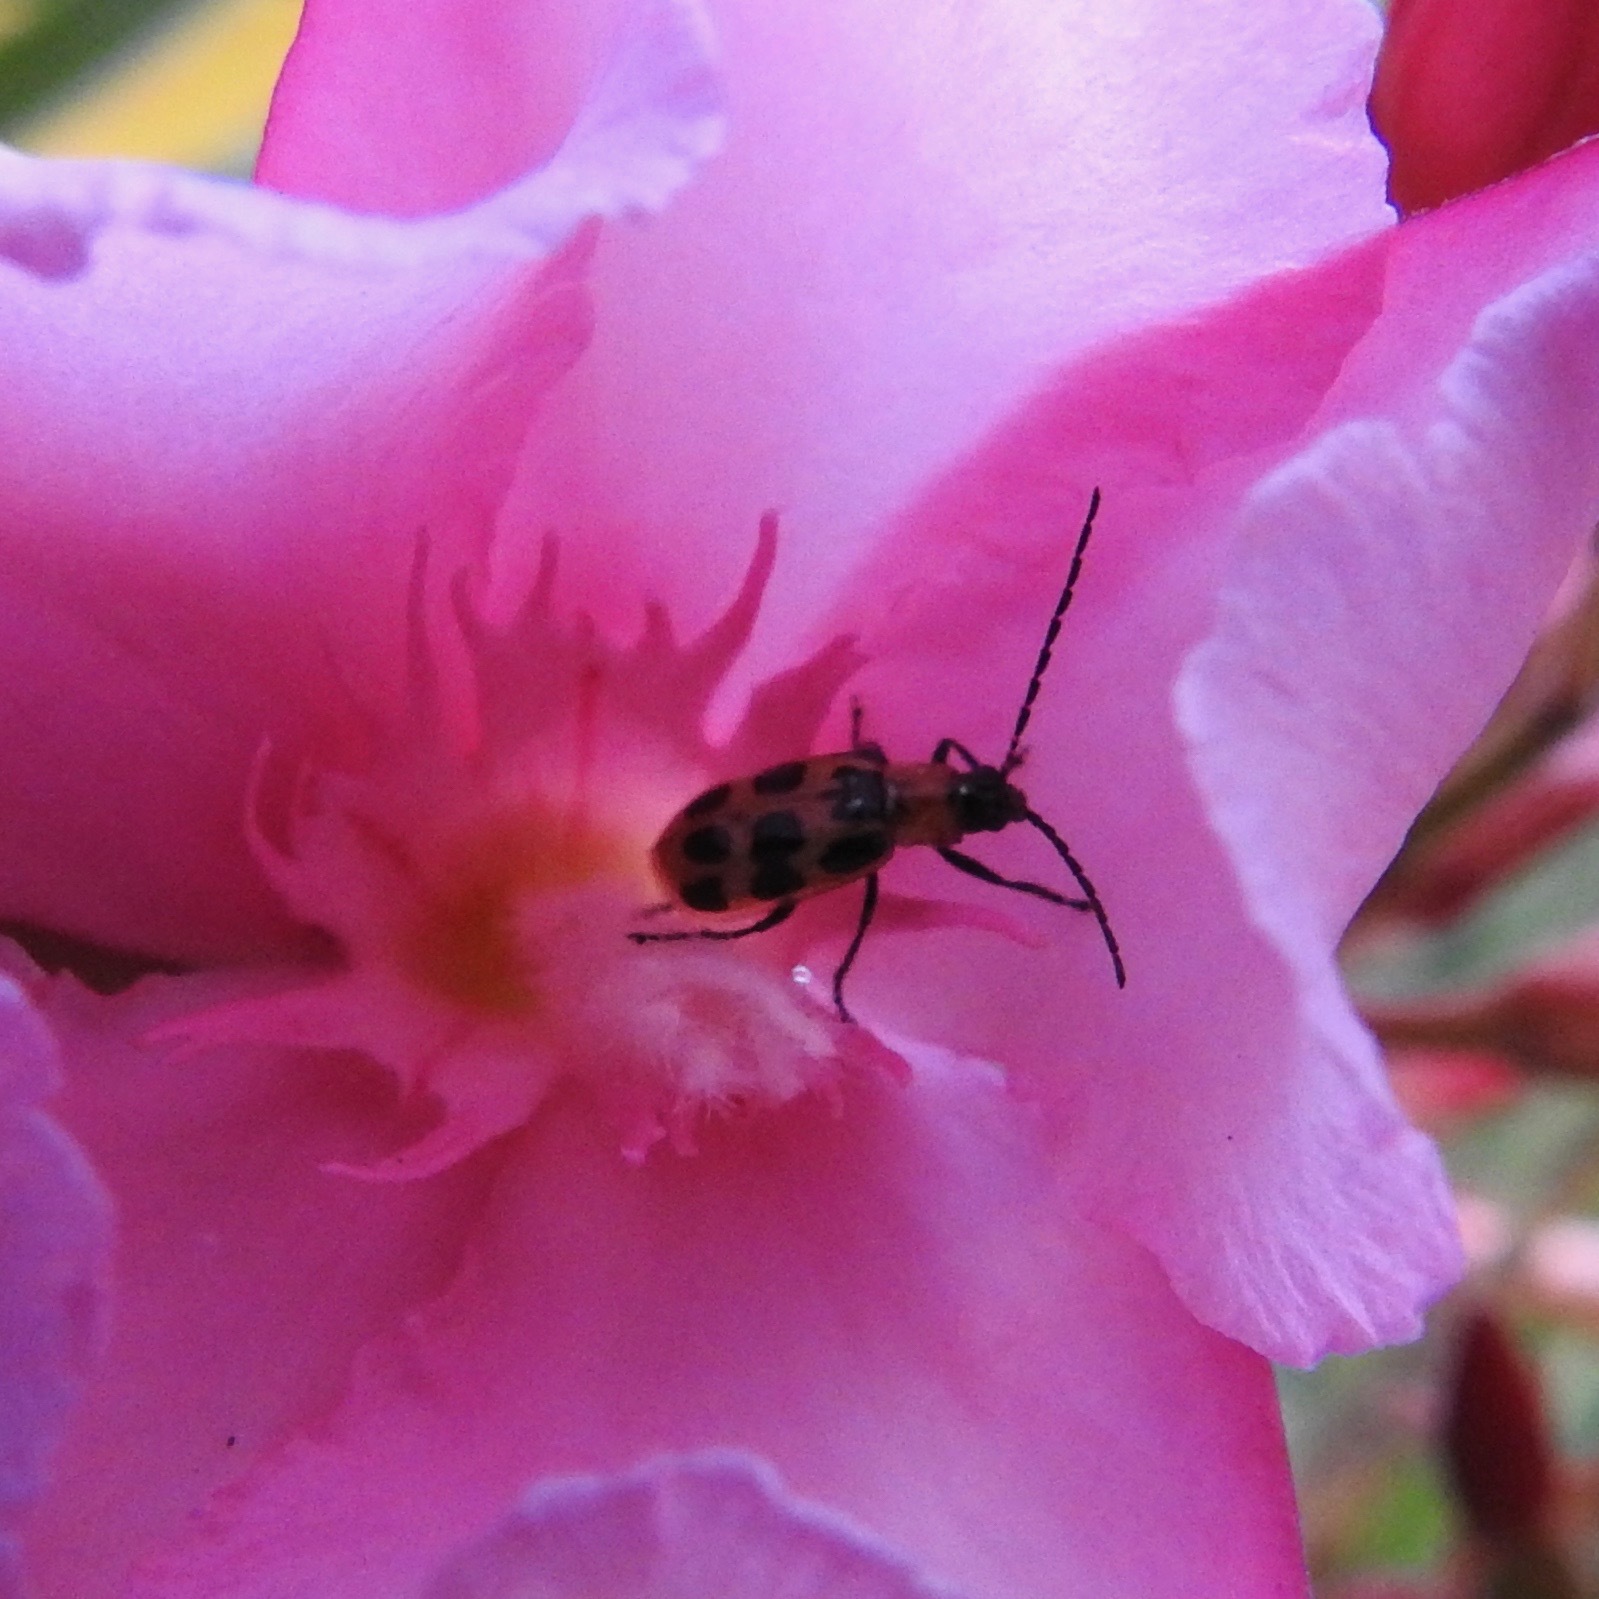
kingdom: Animalia
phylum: Arthropoda
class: Insecta
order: Coleoptera
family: Chrysomelidae
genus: Diabrotica
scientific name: Diabrotica undecimpunctata
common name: Spotted cucumber beetle
